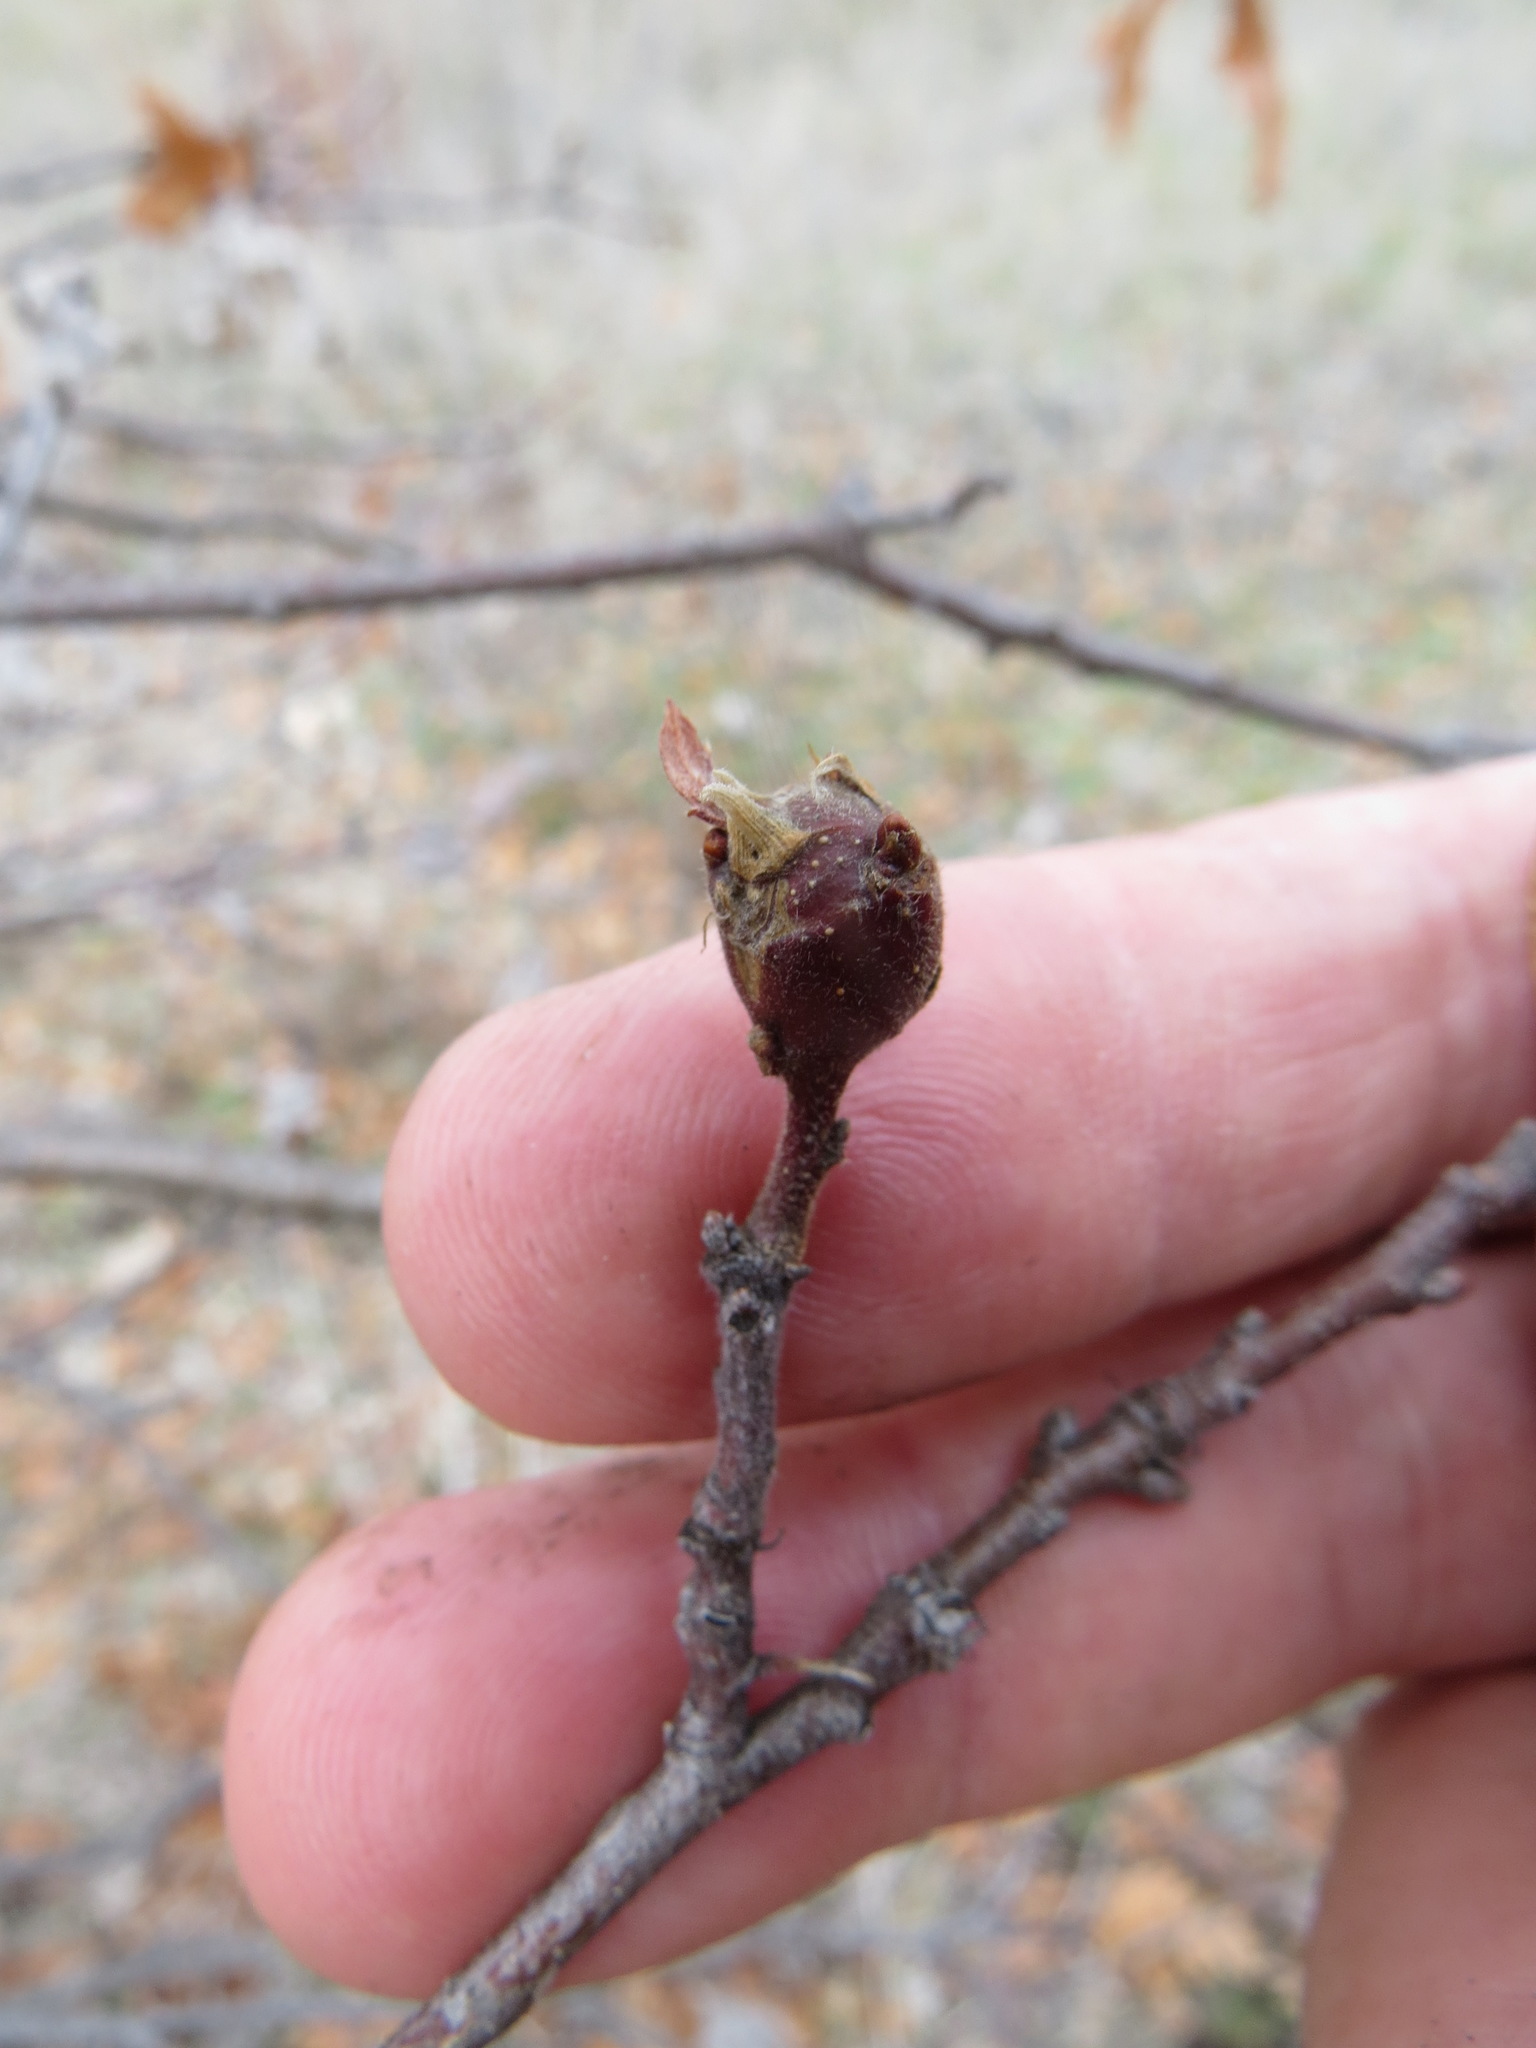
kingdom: Animalia
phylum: Arthropoda
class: Insecta
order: Hymenoptera
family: Cynipidae
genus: Andricus
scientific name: Andricus
